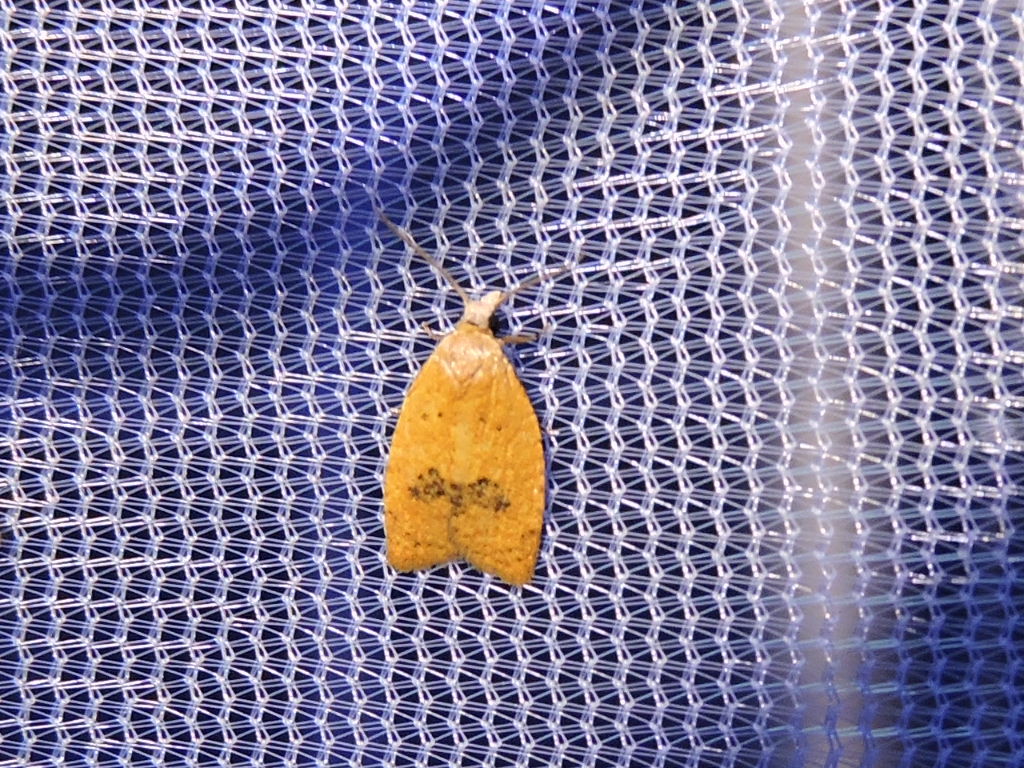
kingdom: Animalia
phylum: Arthropoda
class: Insecta
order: Lepidoptera
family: Tortricidae
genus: Sparganothoides
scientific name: Sparganothoides lentiginosana
